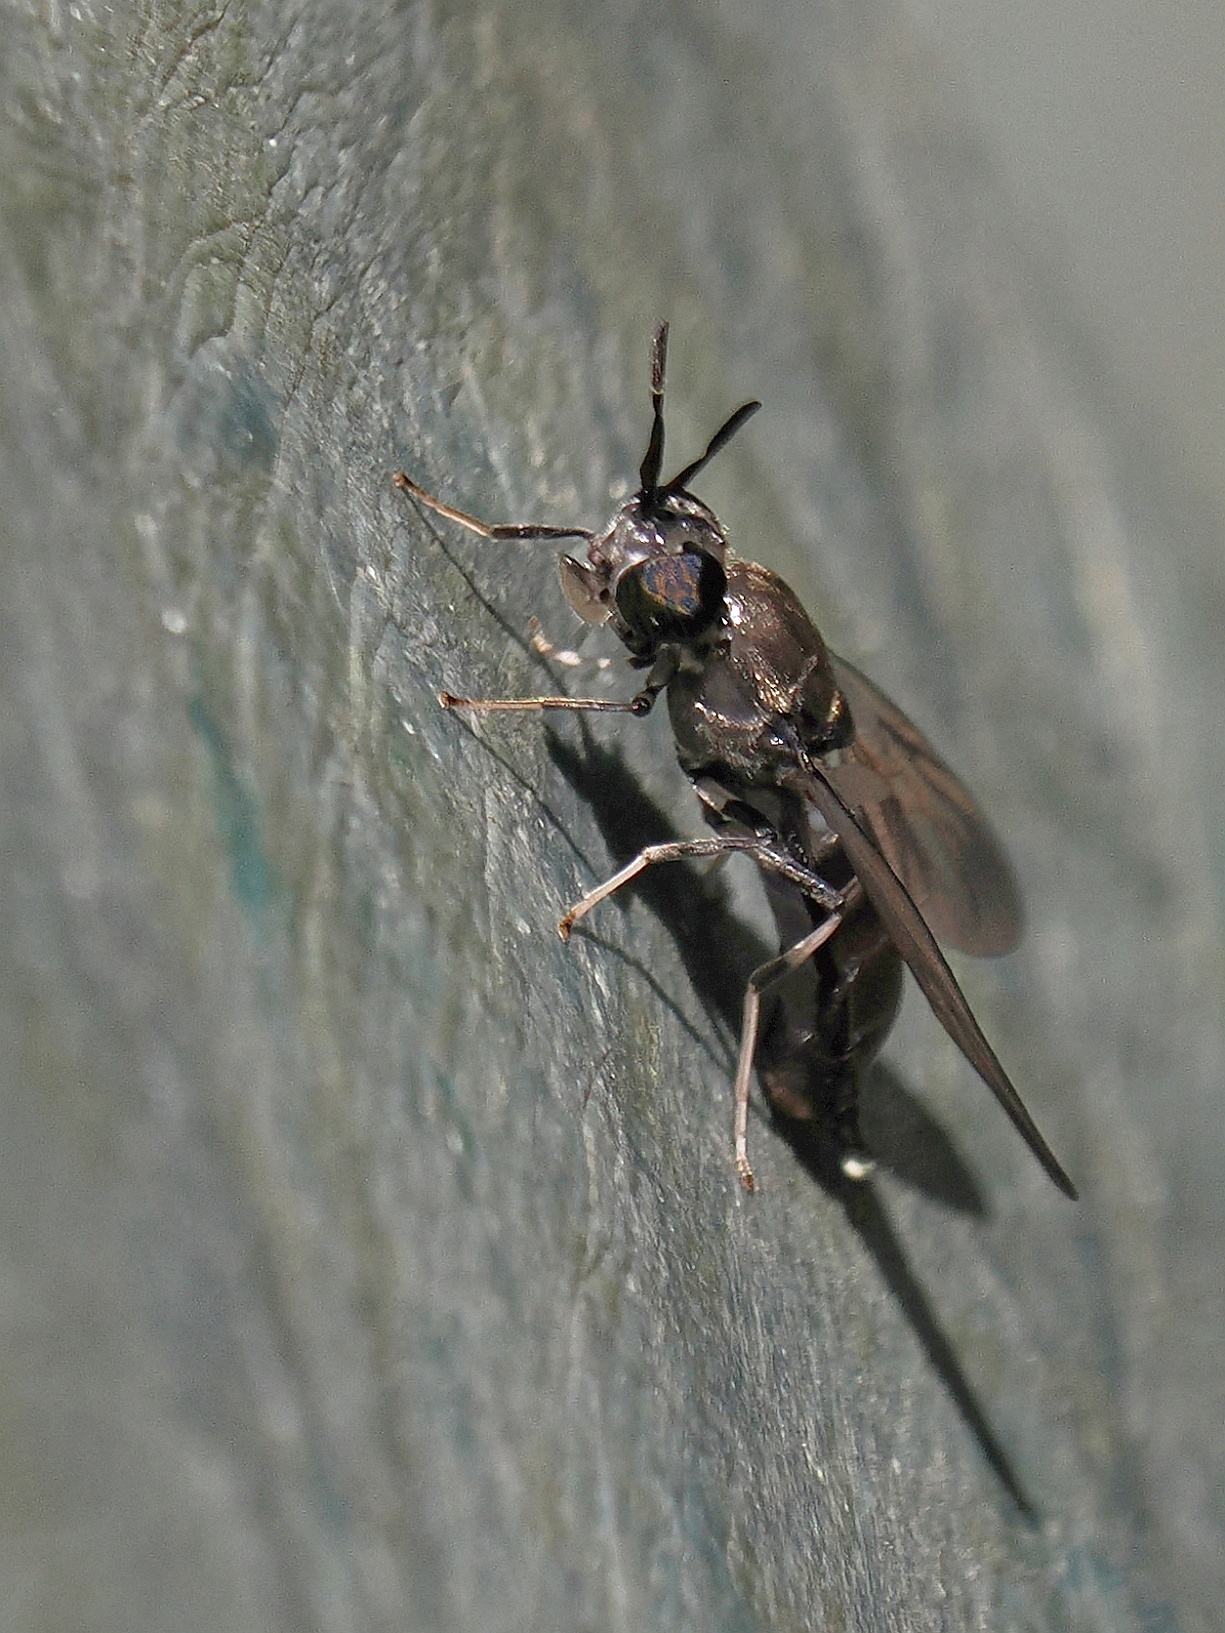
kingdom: Animalia
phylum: Arthropoda
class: Insecta
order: Diptera
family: Stratiomyidae
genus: Hermetia
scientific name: Hermetia illucens
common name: Black soldier fly
